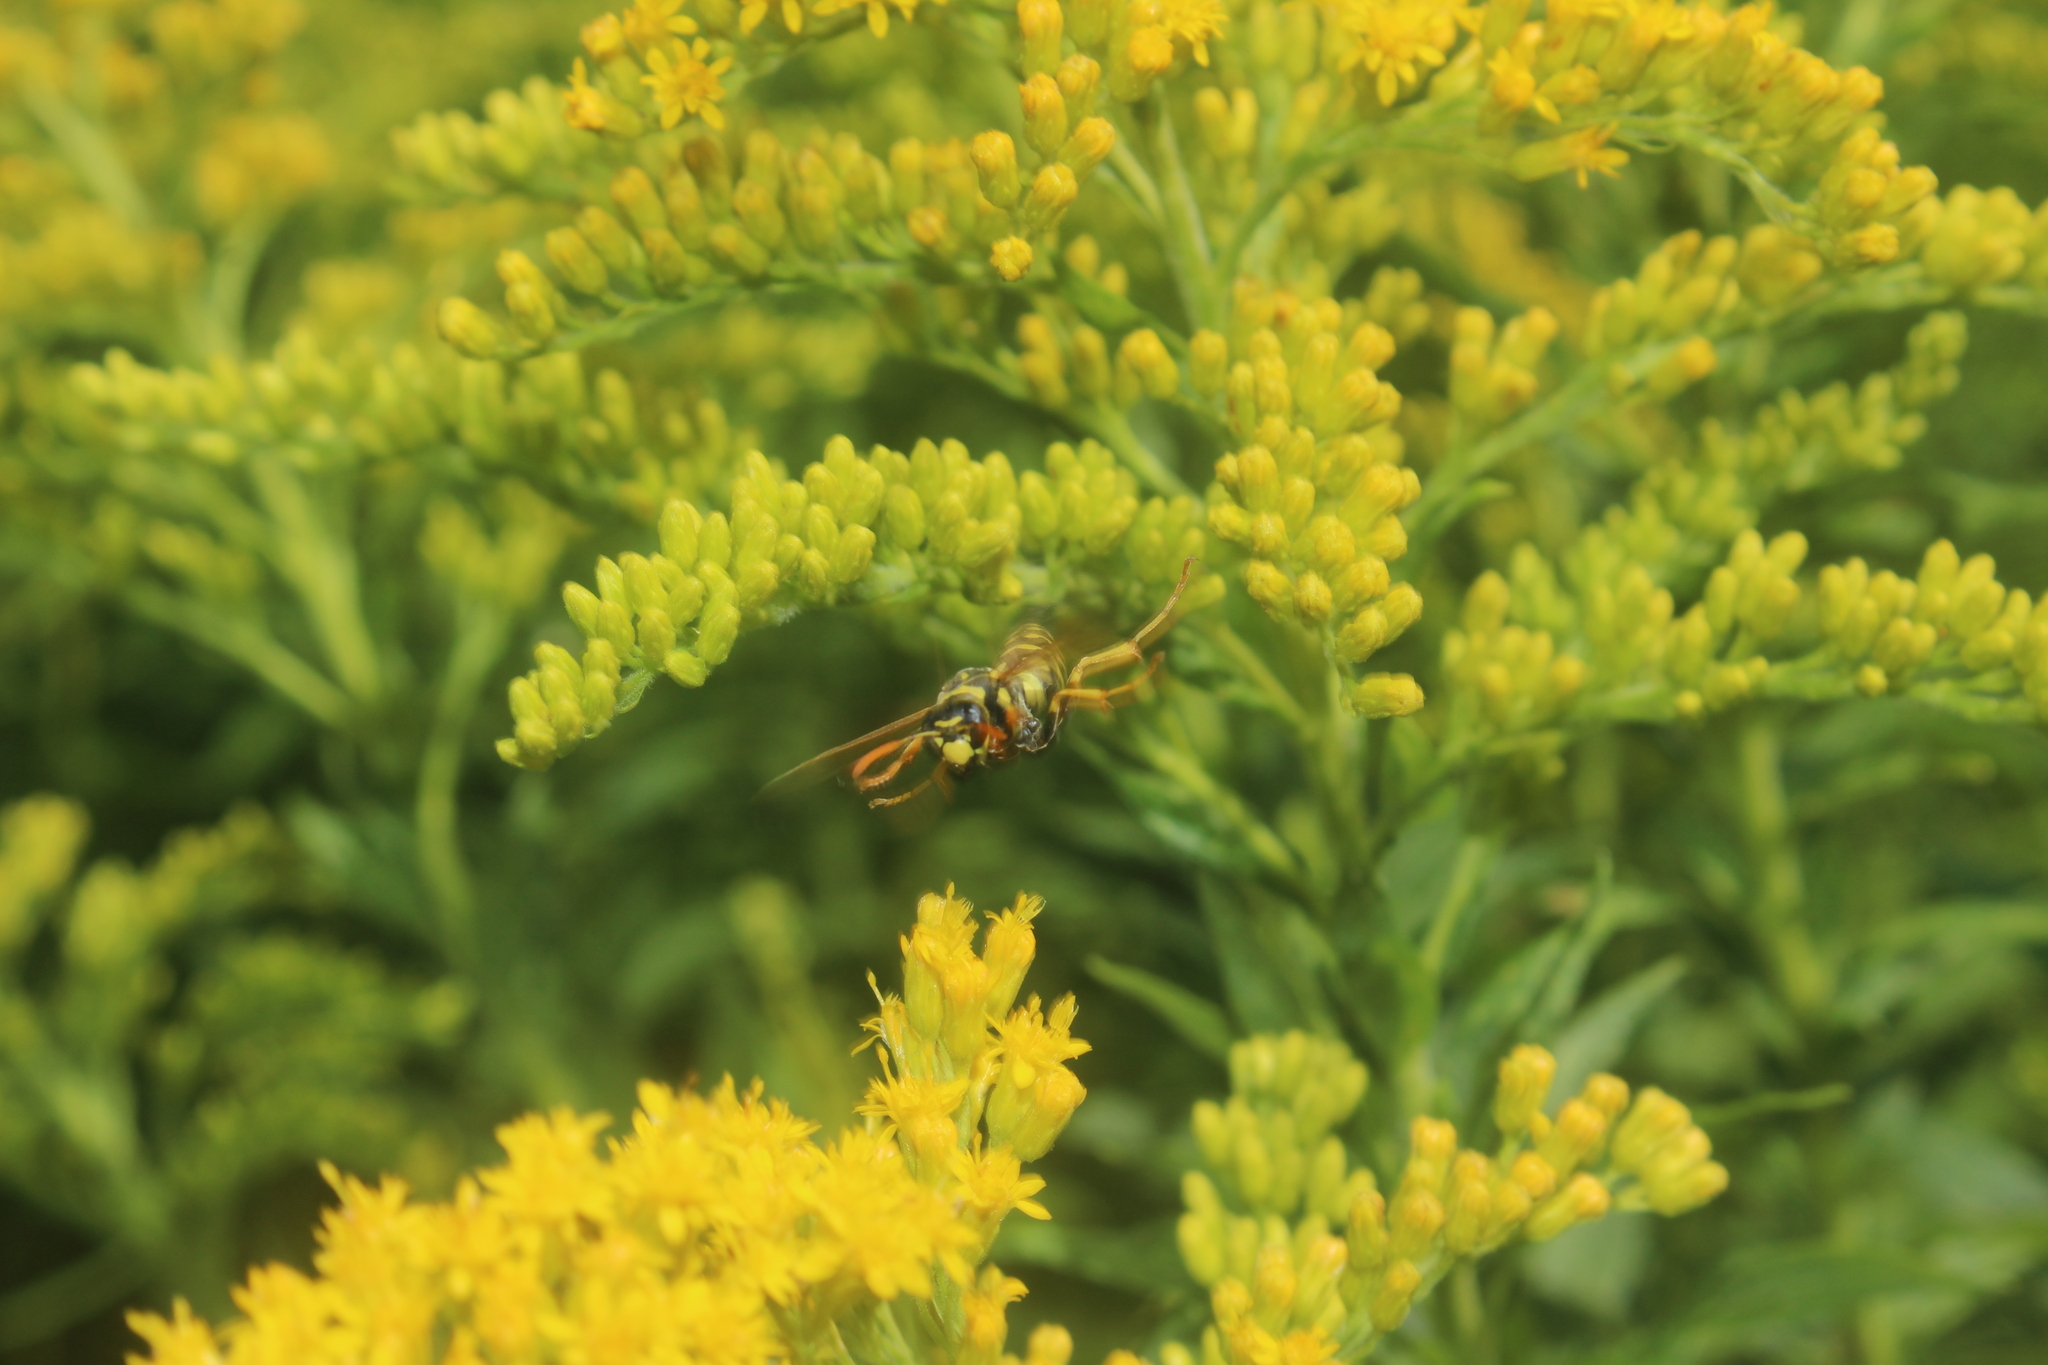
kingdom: Animalia
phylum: Arthropoda
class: Insecta
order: Hymenoptera
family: Eumenidae
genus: Polistes
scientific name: Polistes dominula
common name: Paper wasp
